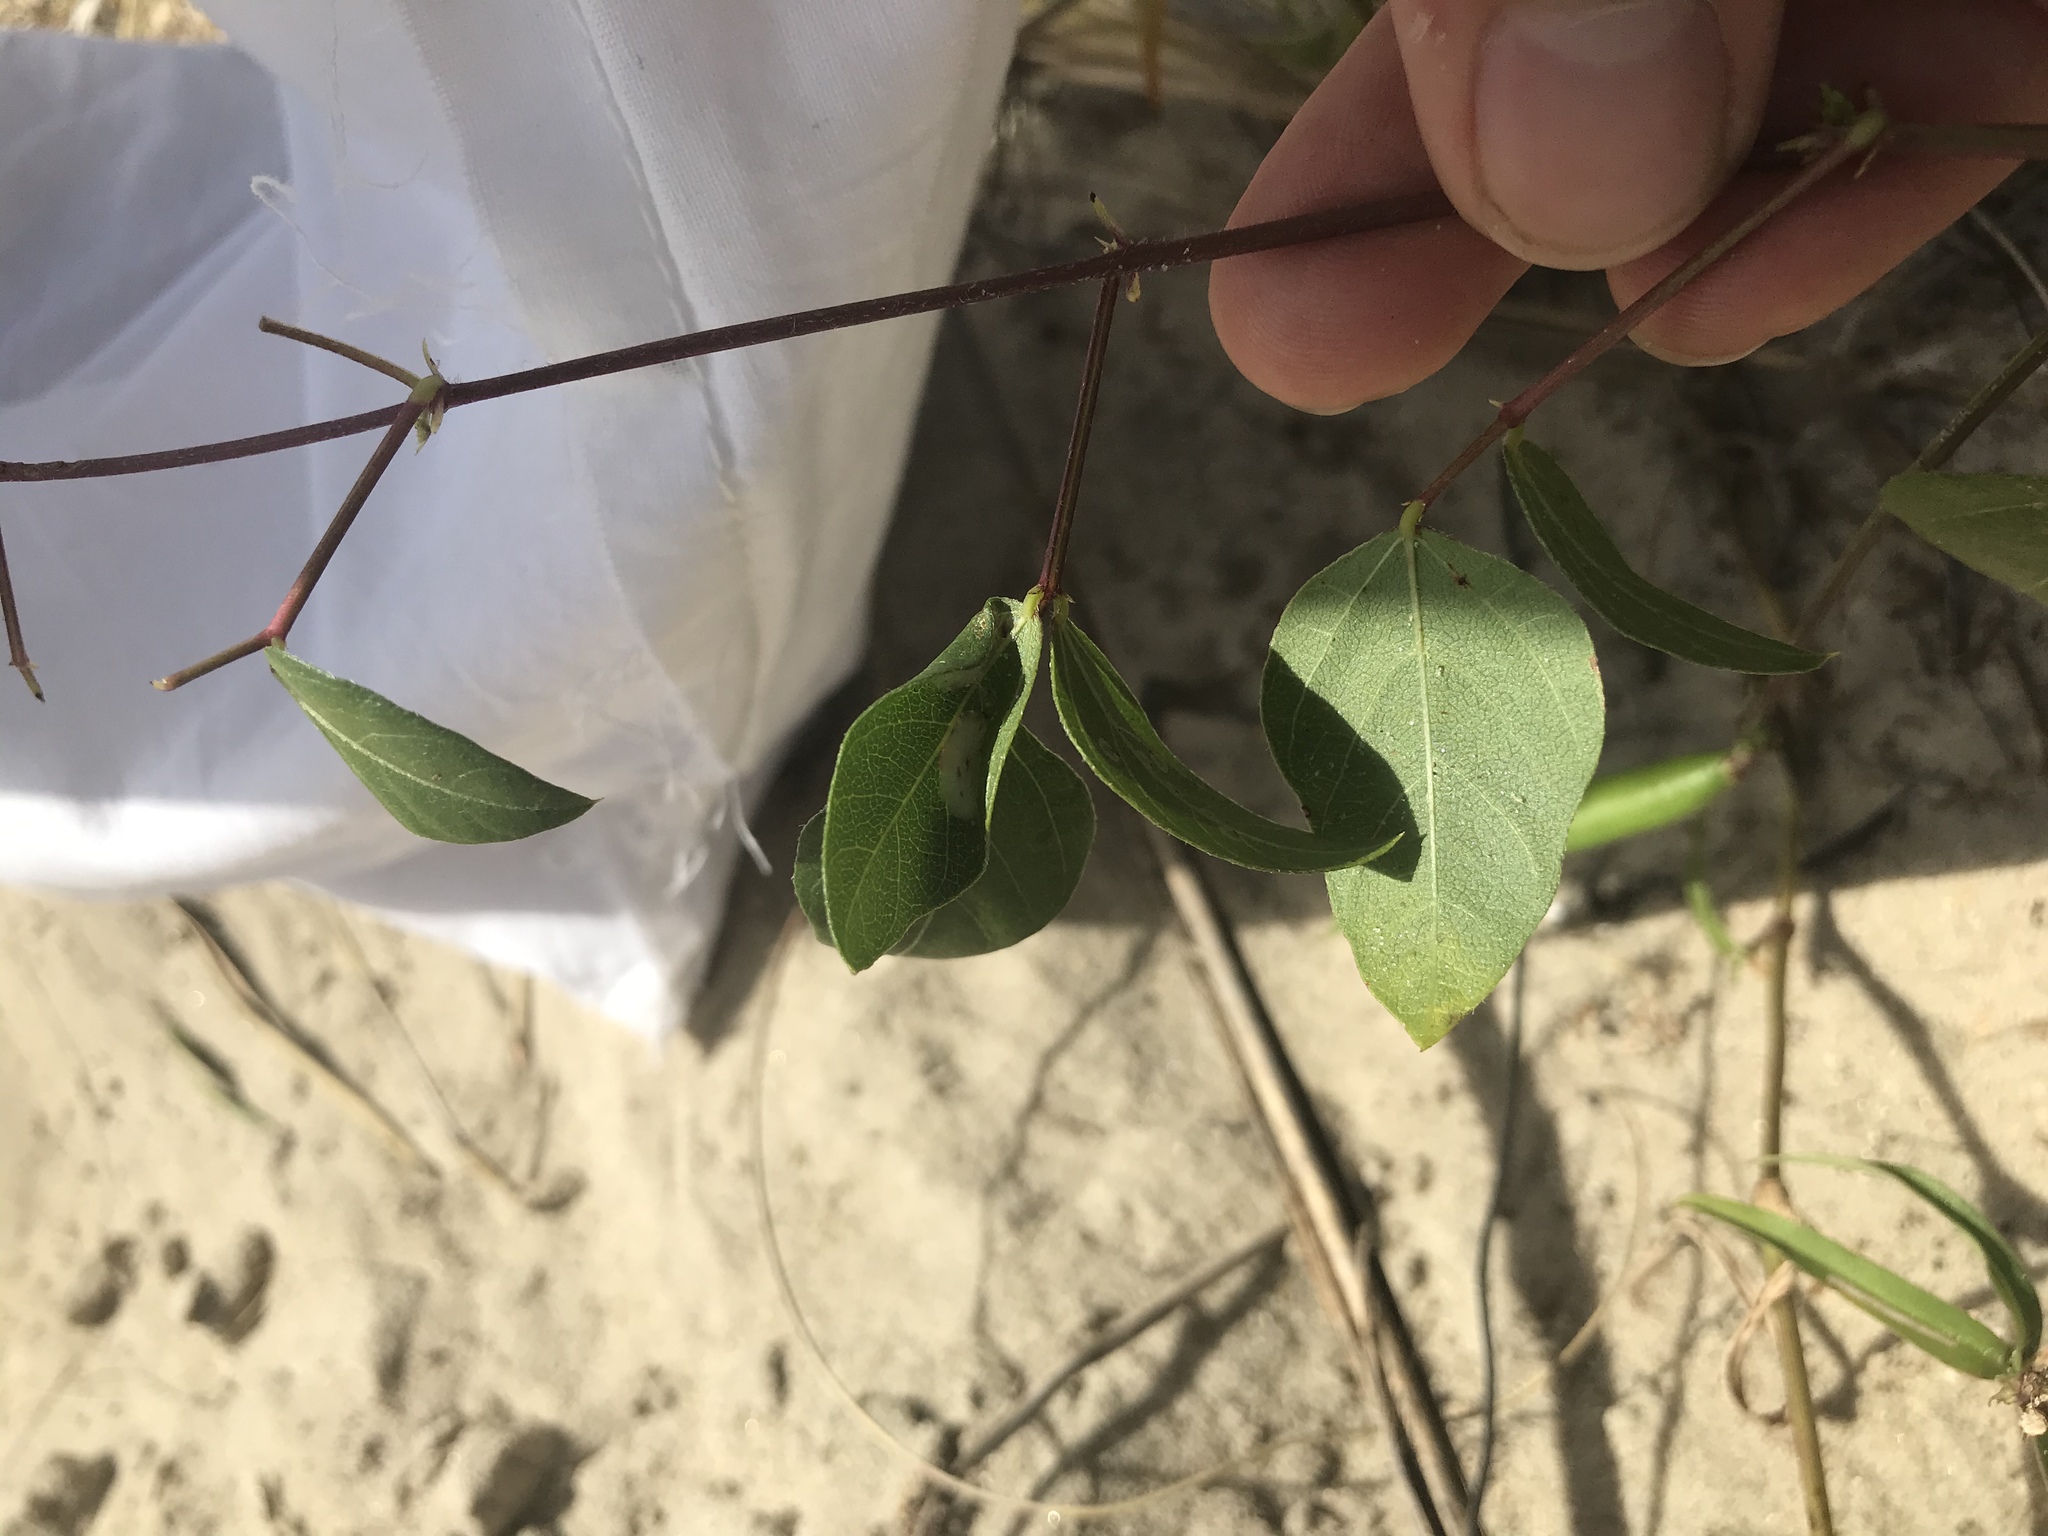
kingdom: Plantae
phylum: Tracheophyta
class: Magnoliopsida
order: Fabales
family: Fabaceae
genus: Strophostyles
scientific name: Strophostyles helvola
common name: Trailing wild bean
